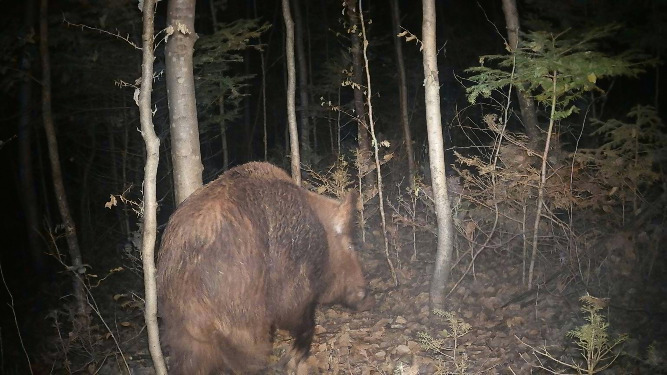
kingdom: Animalia
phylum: Chordata
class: Mammalia
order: Artiodactyla
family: Suidae
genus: Sus
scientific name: Sus scrofa
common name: Wild boar
